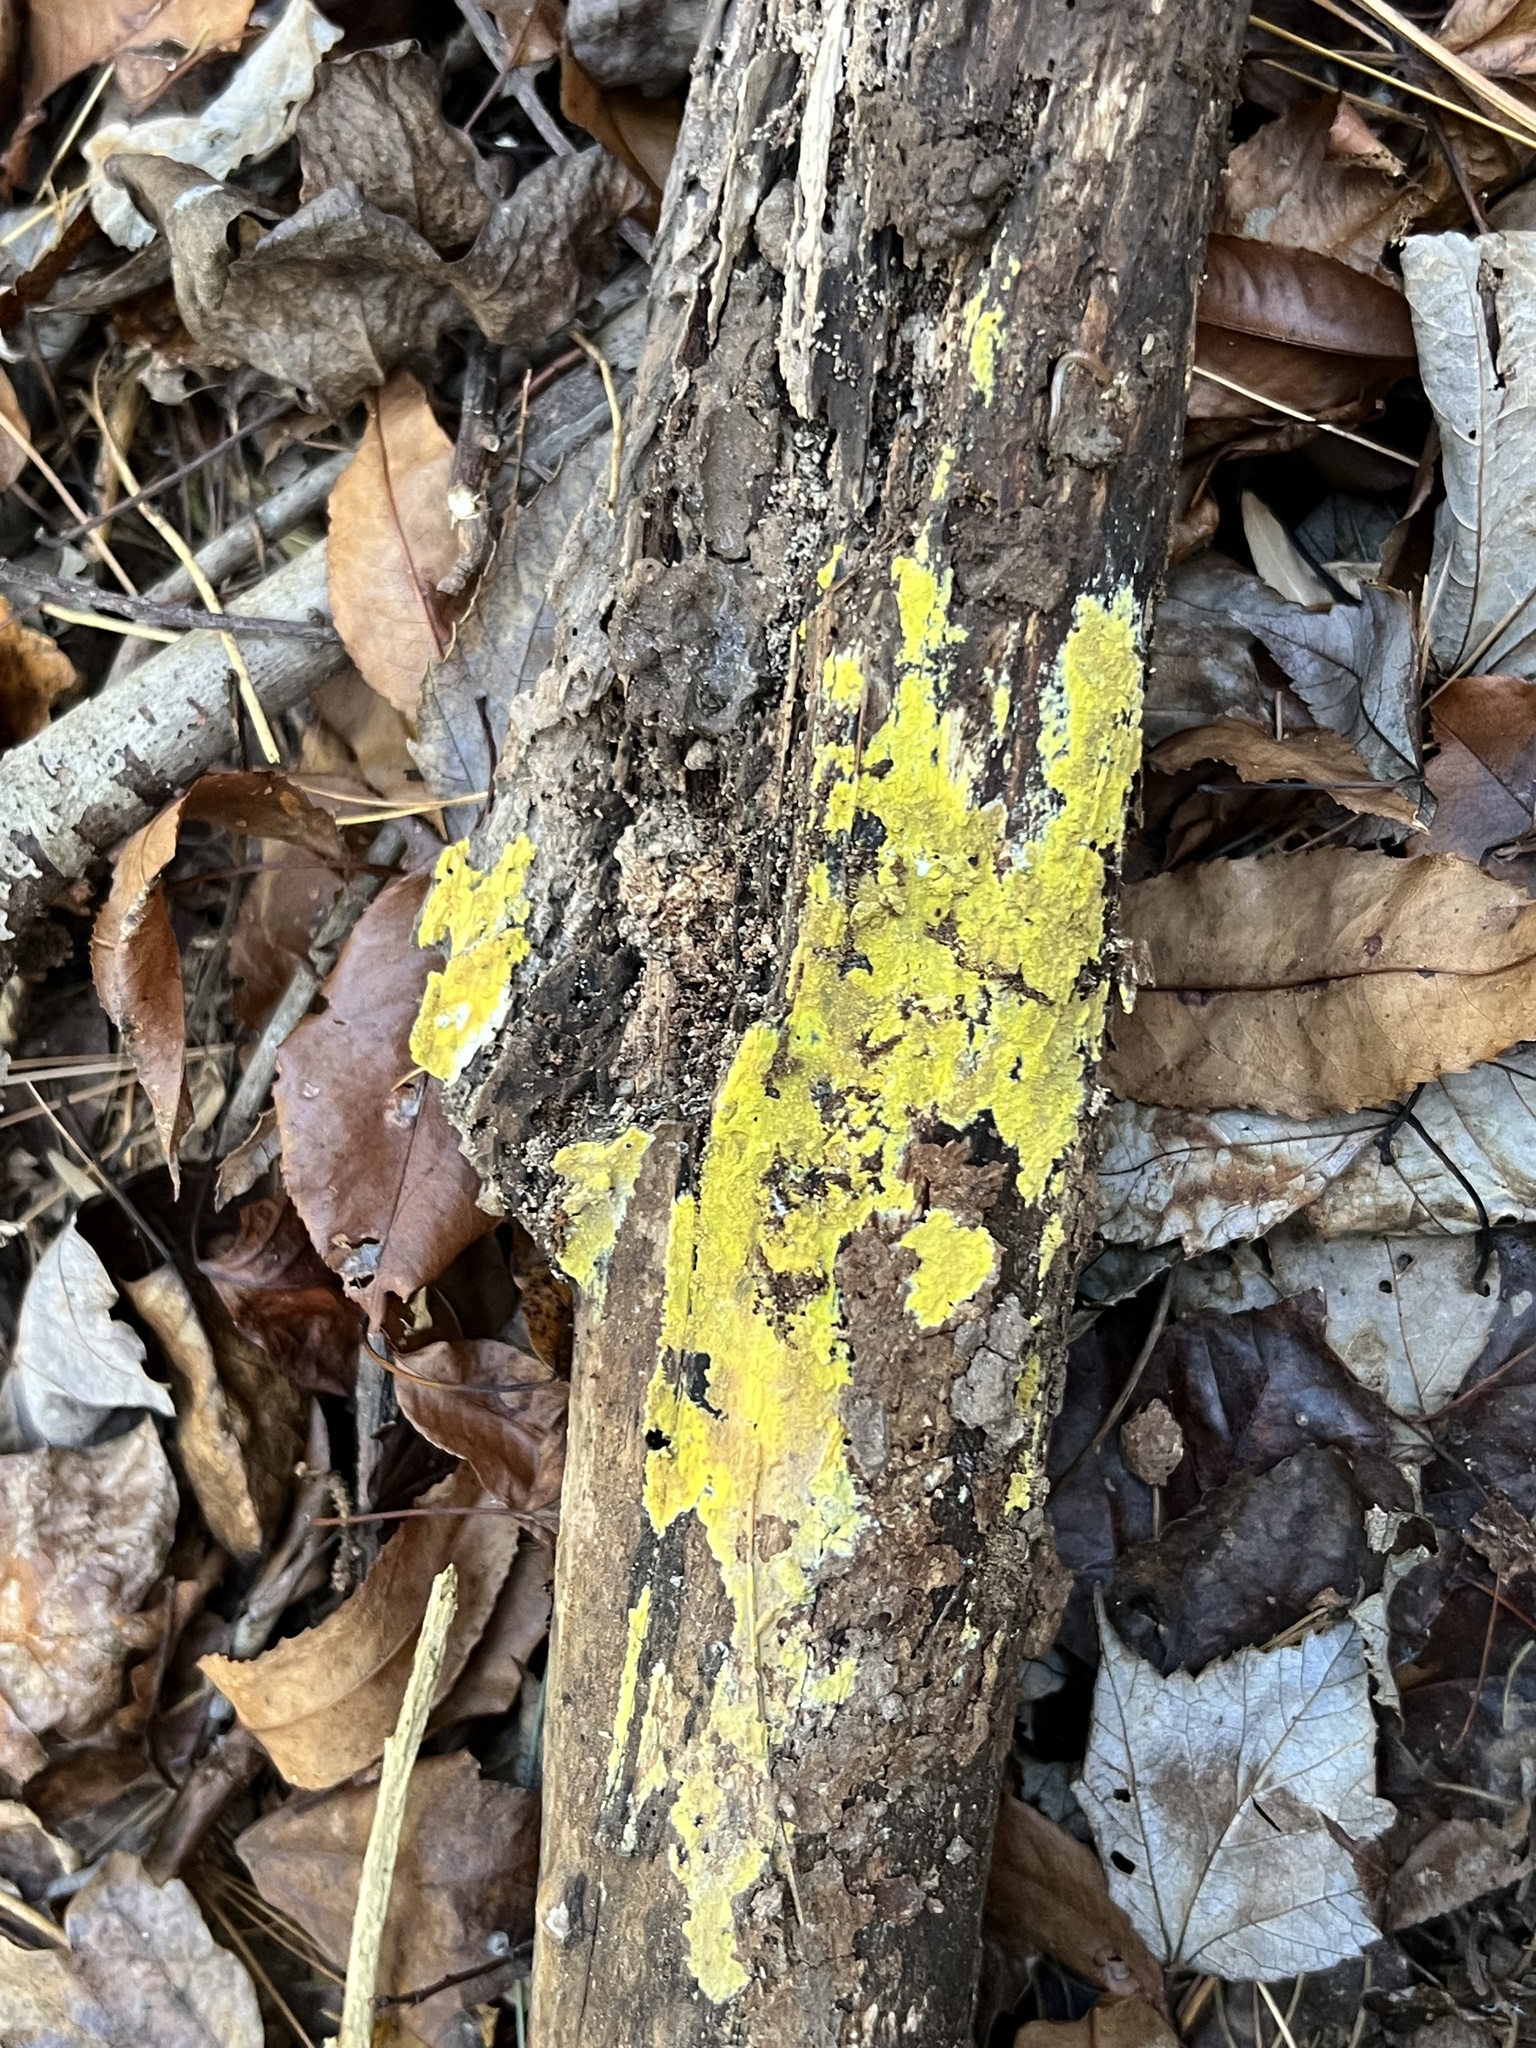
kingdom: Fungi
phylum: Basidiomycota
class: Agaricomycetes
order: Polyporales
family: Meruliaceae
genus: Phlebiodontia
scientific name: Phlebiodontia subochracea
